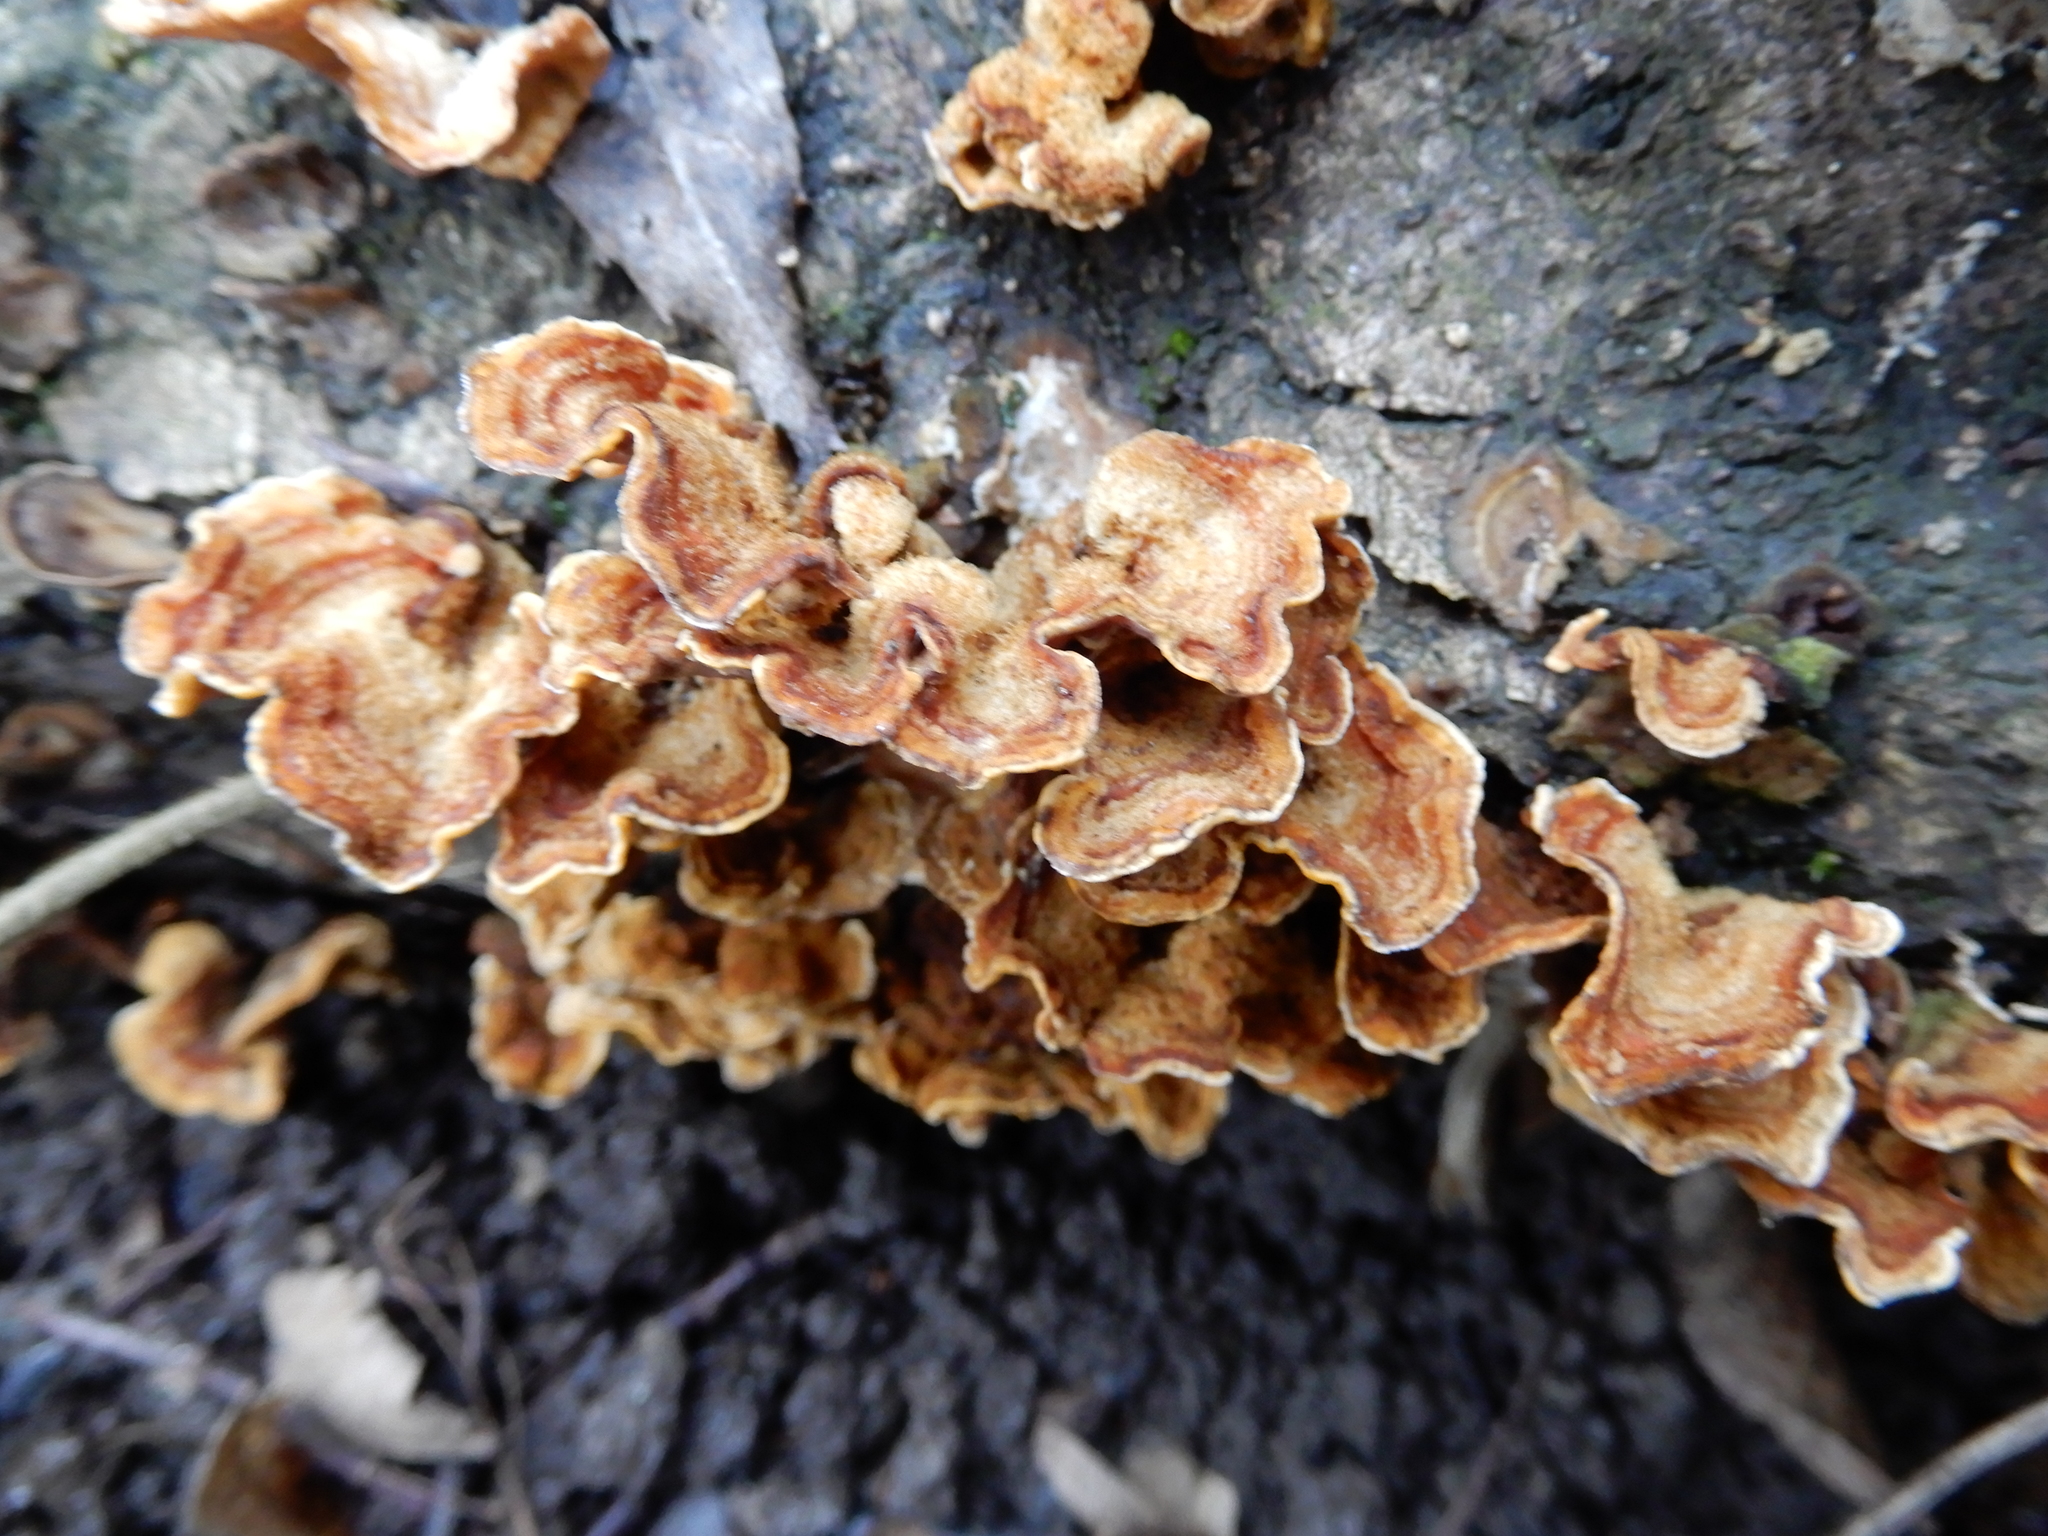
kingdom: Fungi
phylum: Basidiomycota
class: Agaricomycetes
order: Russulales
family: Stereaceae
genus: Stereum
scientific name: Stereum hirsutum
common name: Hairy curtain crust
